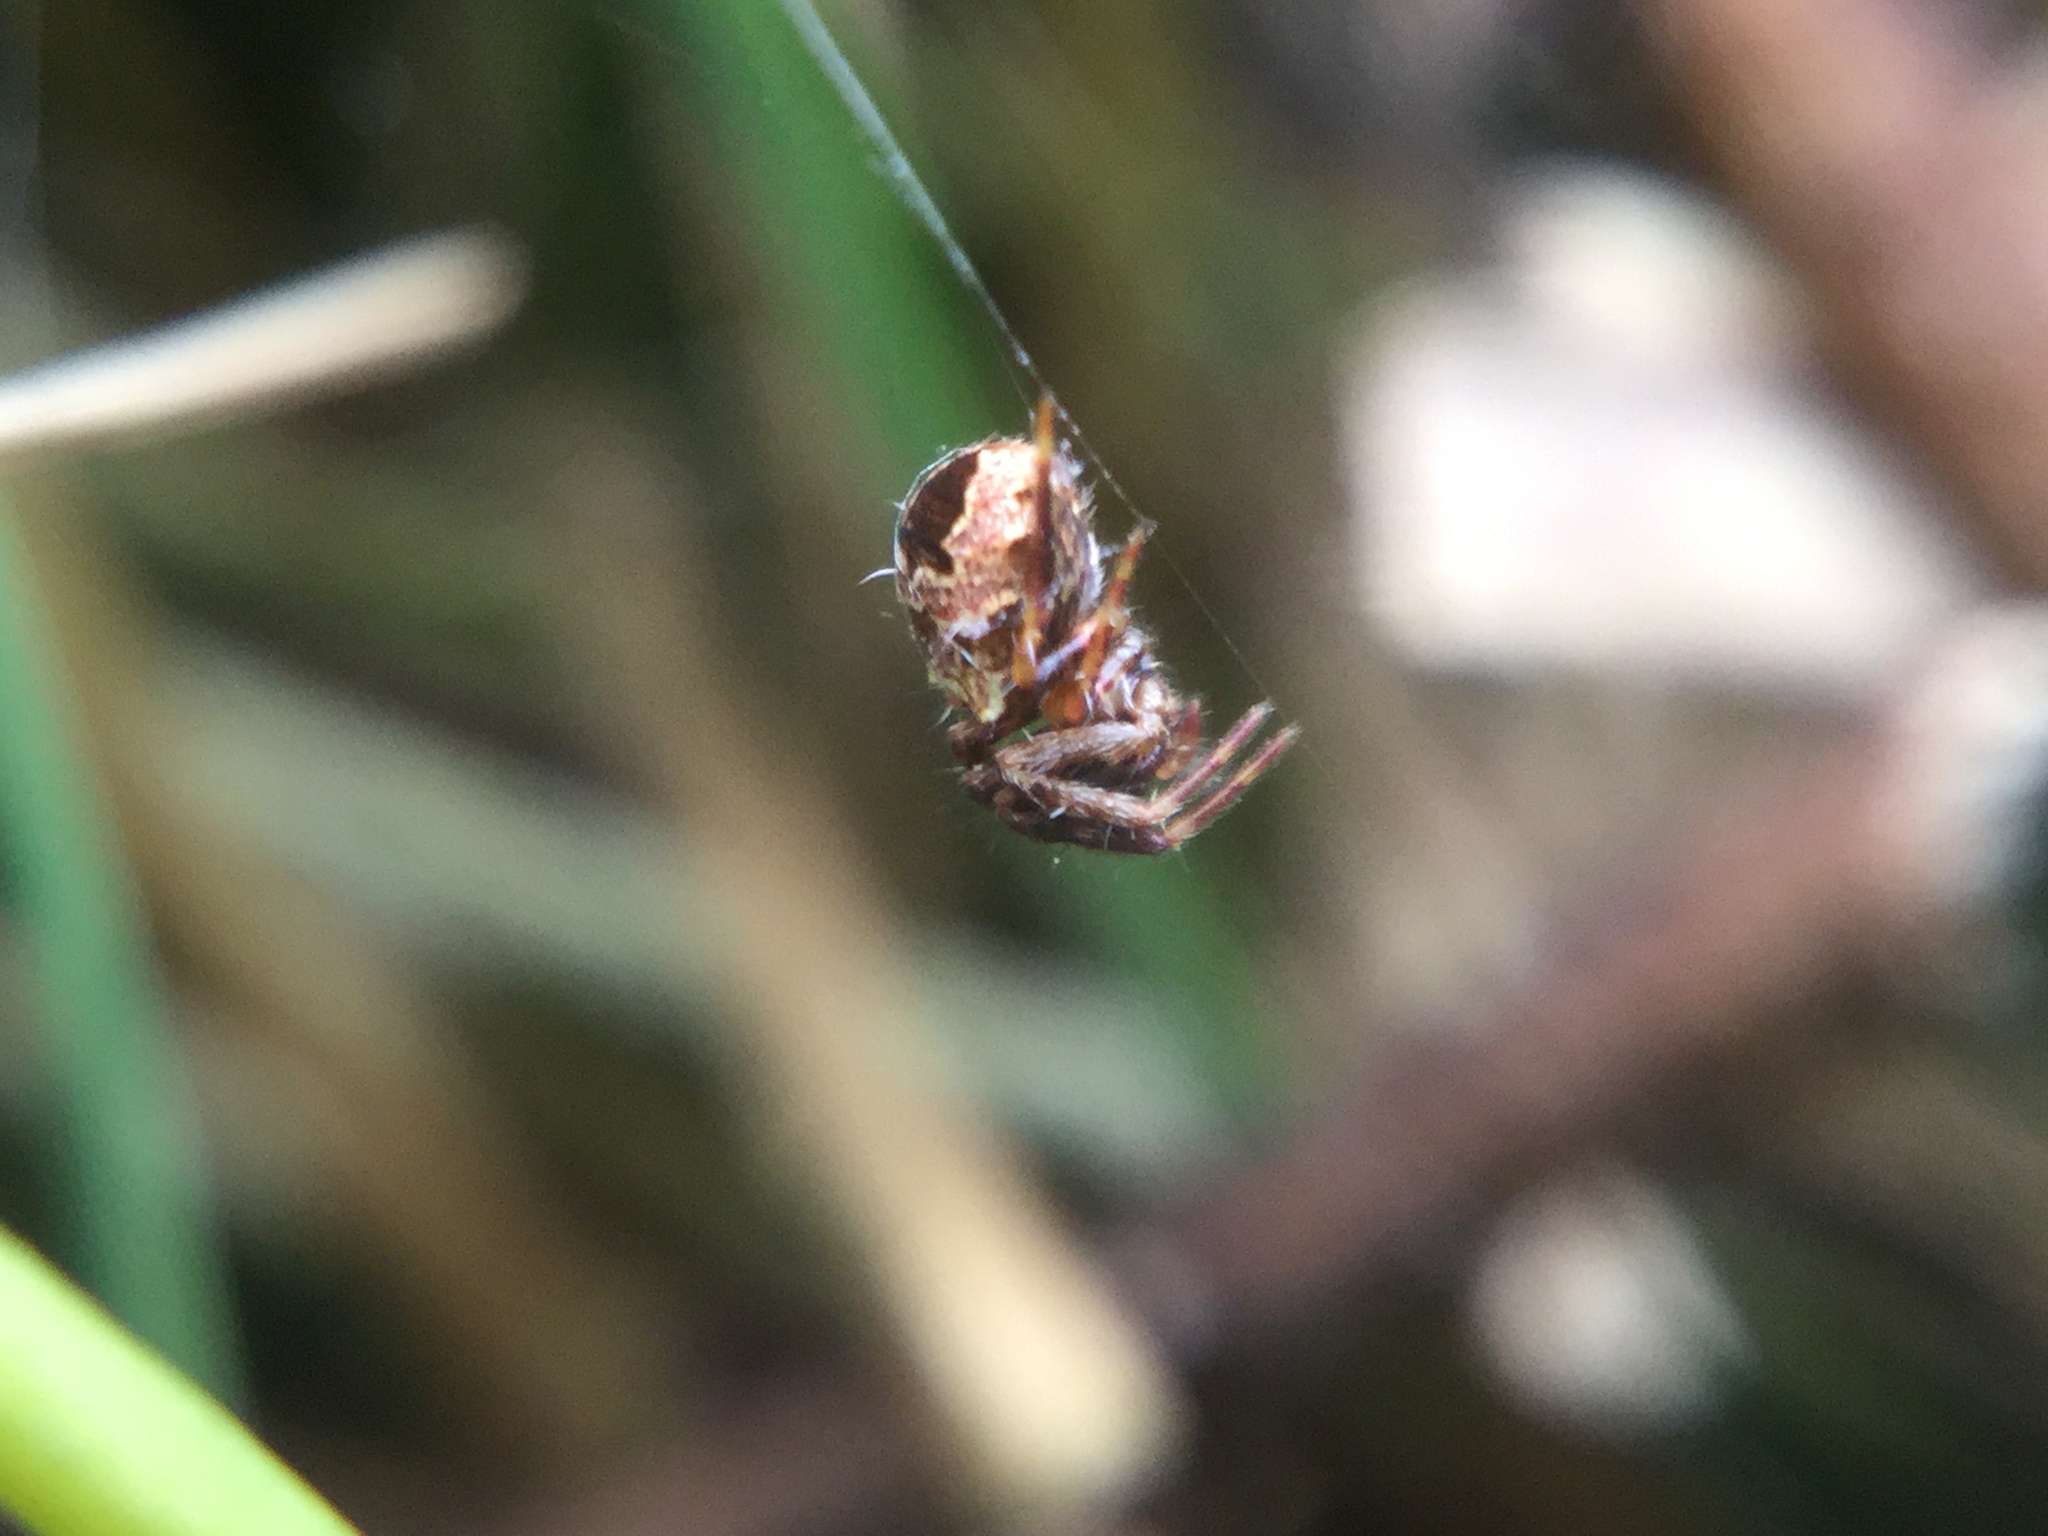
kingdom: Animalia
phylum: Arthropoda
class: Arachnida
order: Araneae
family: Araneidae
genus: Gea
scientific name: Gea heptagon
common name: Orb weavers
